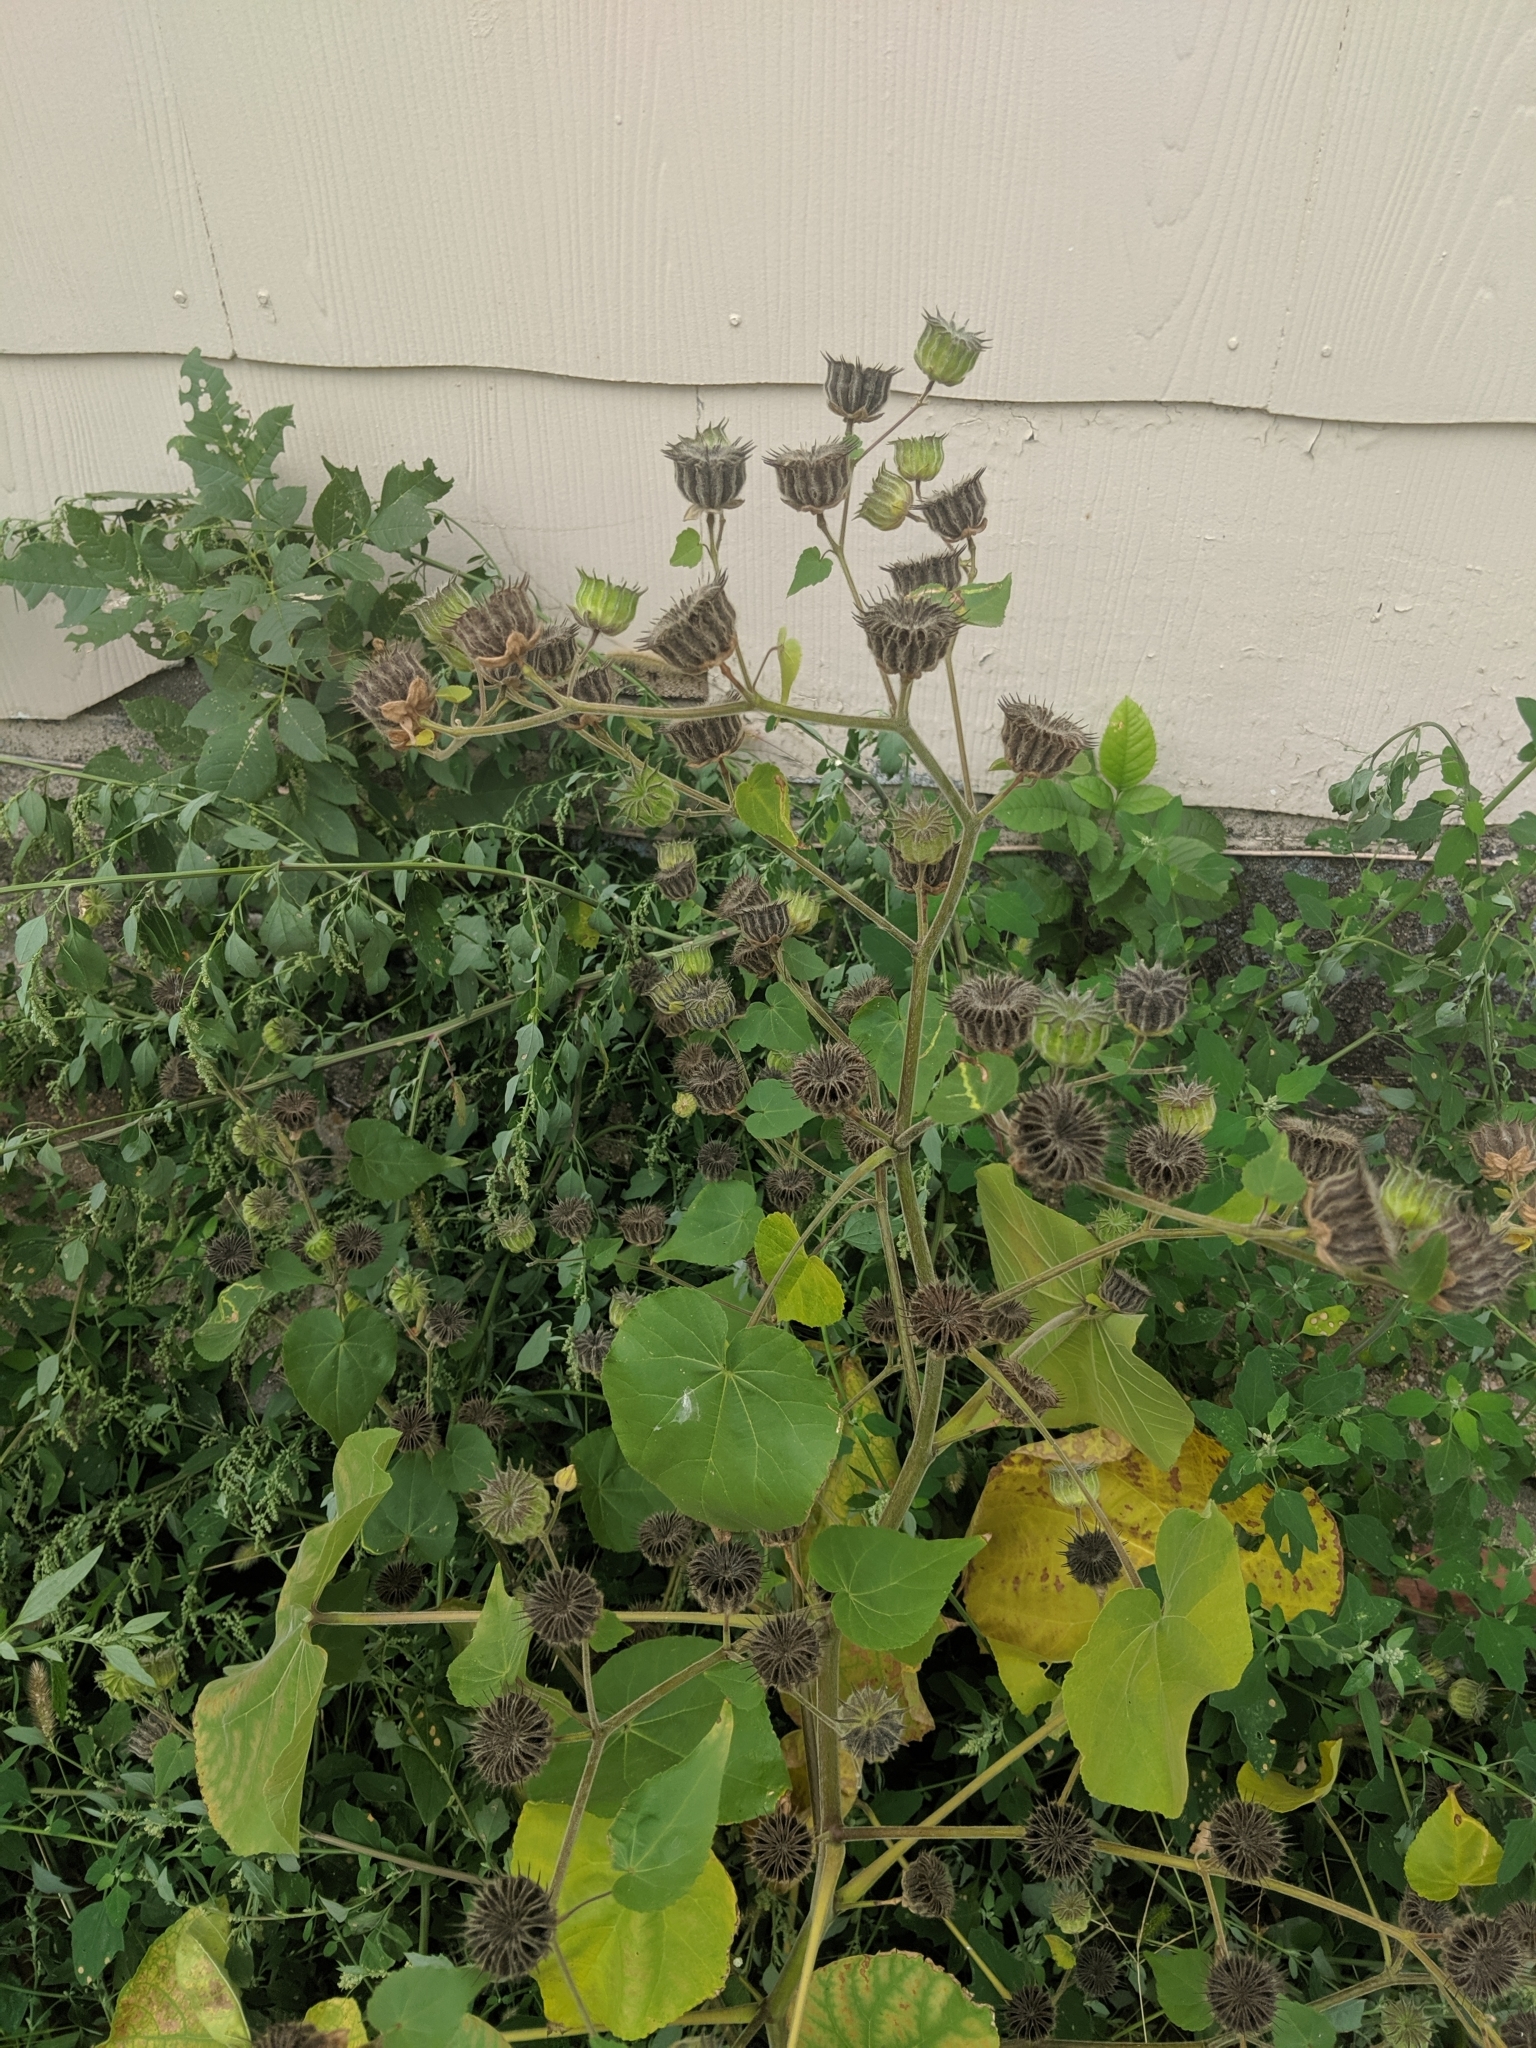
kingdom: Plantae
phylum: Tracheophyta
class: Magnoliopsida
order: Malvales
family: Malvaceae
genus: Abutilon
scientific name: Abutilon theophrasti
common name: Velvetleaf
